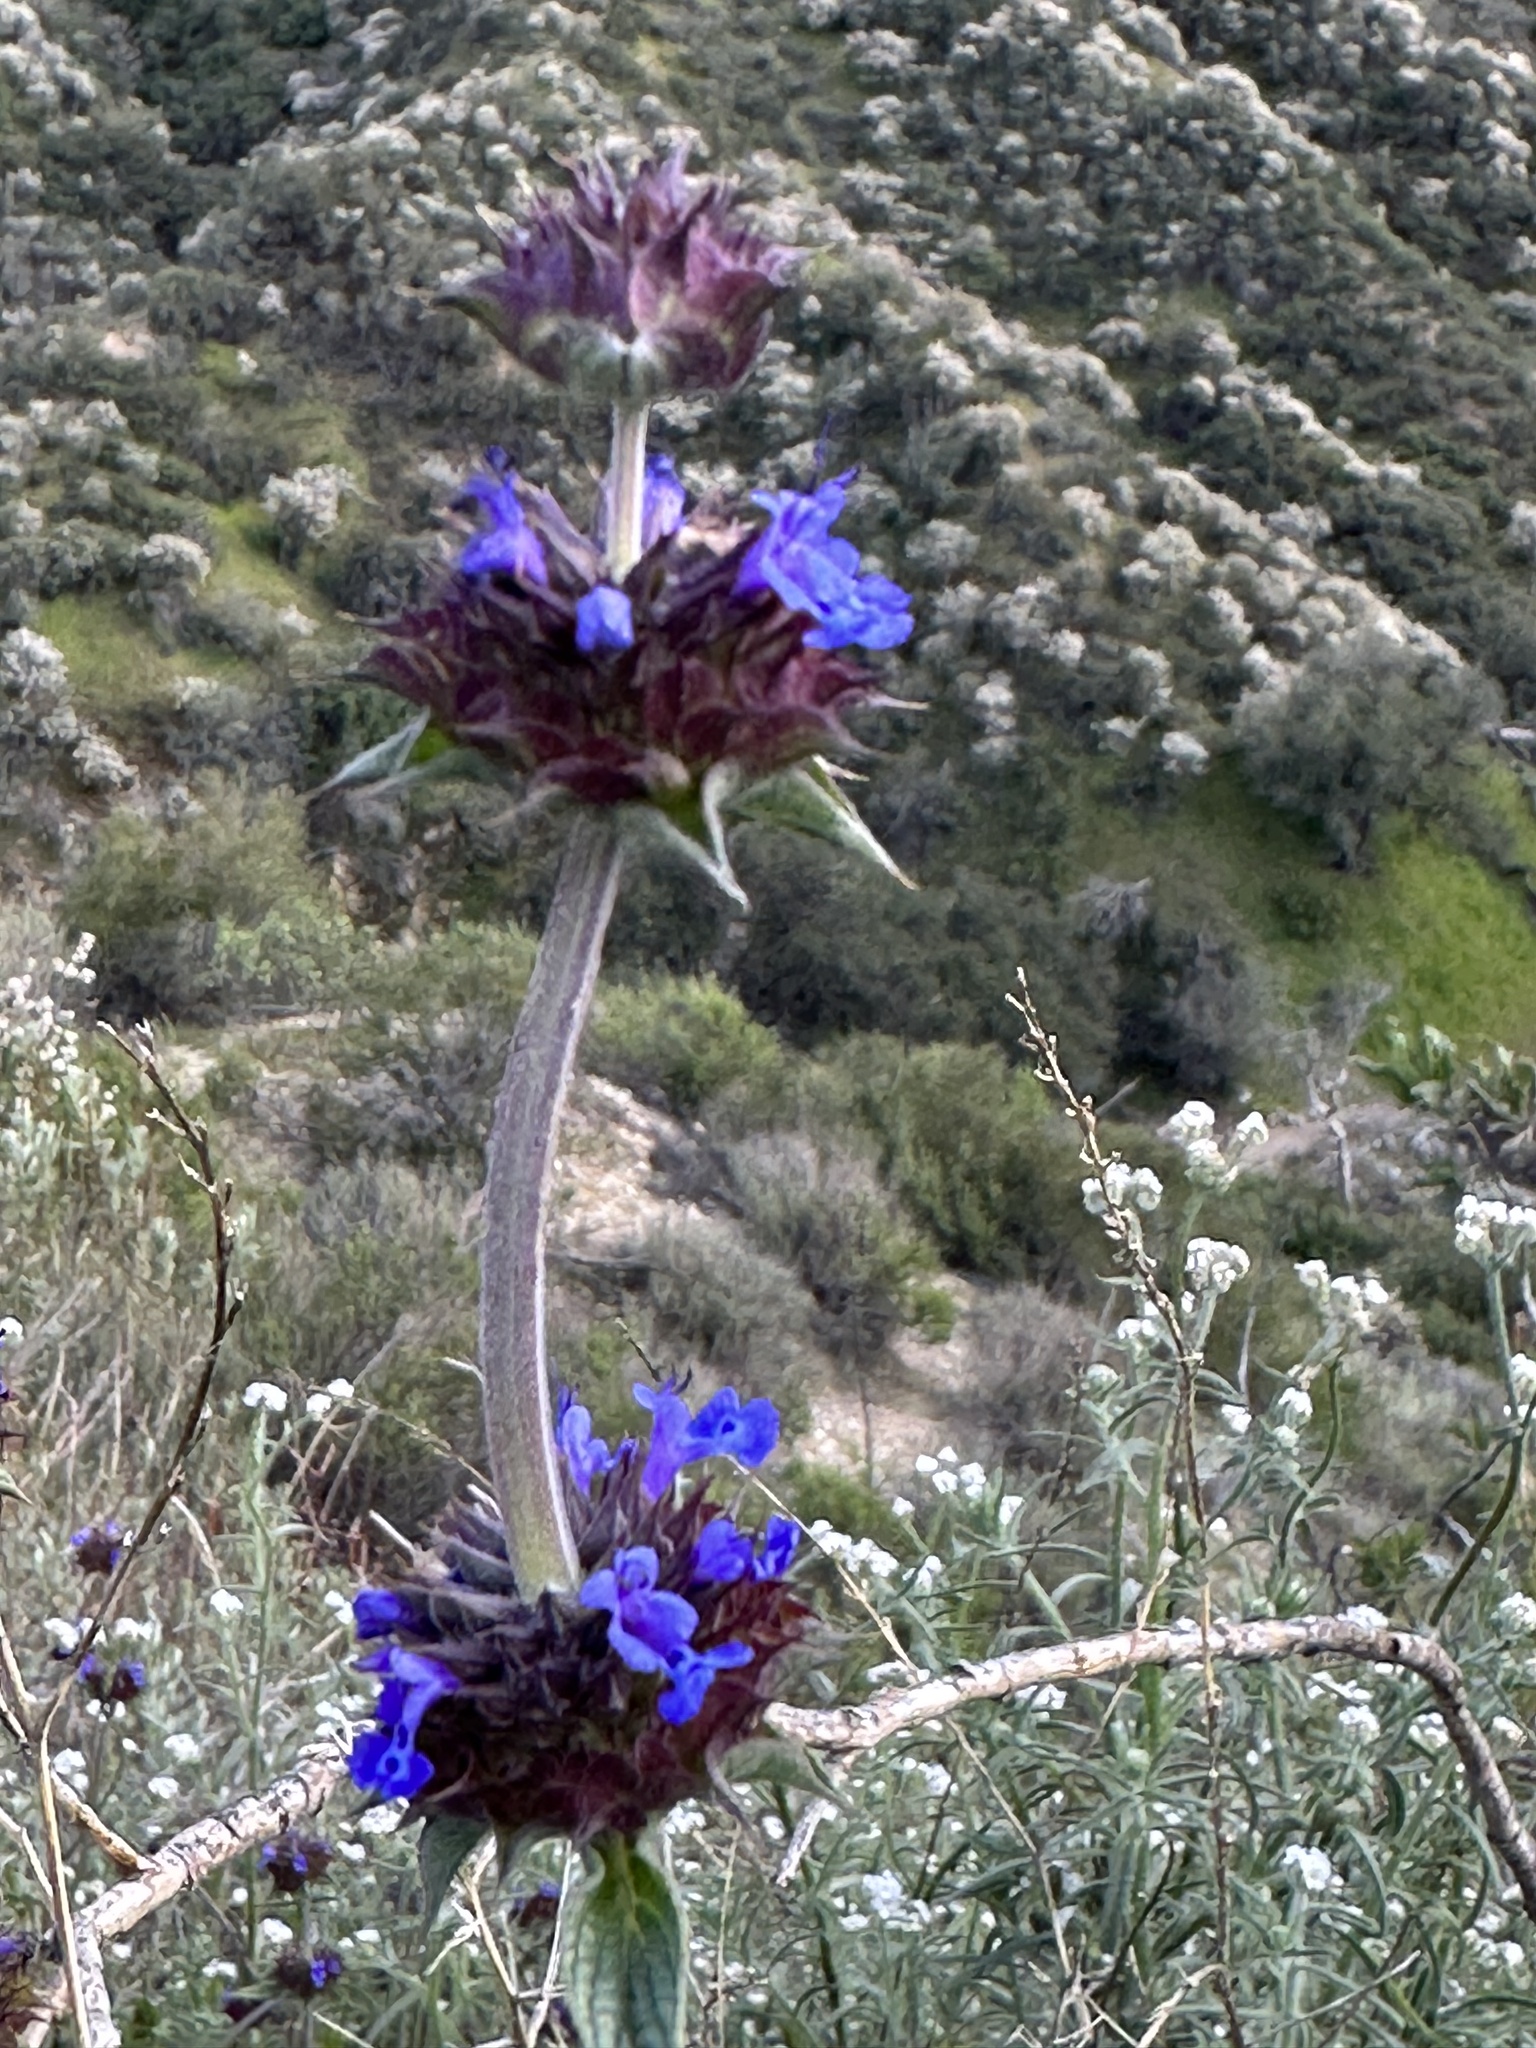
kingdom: Plantae
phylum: Tracheophyta
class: Magnoliopsida
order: Lamiales
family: Lamiaceae
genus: Salvia
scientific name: Salvia columbariae
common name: Chia
